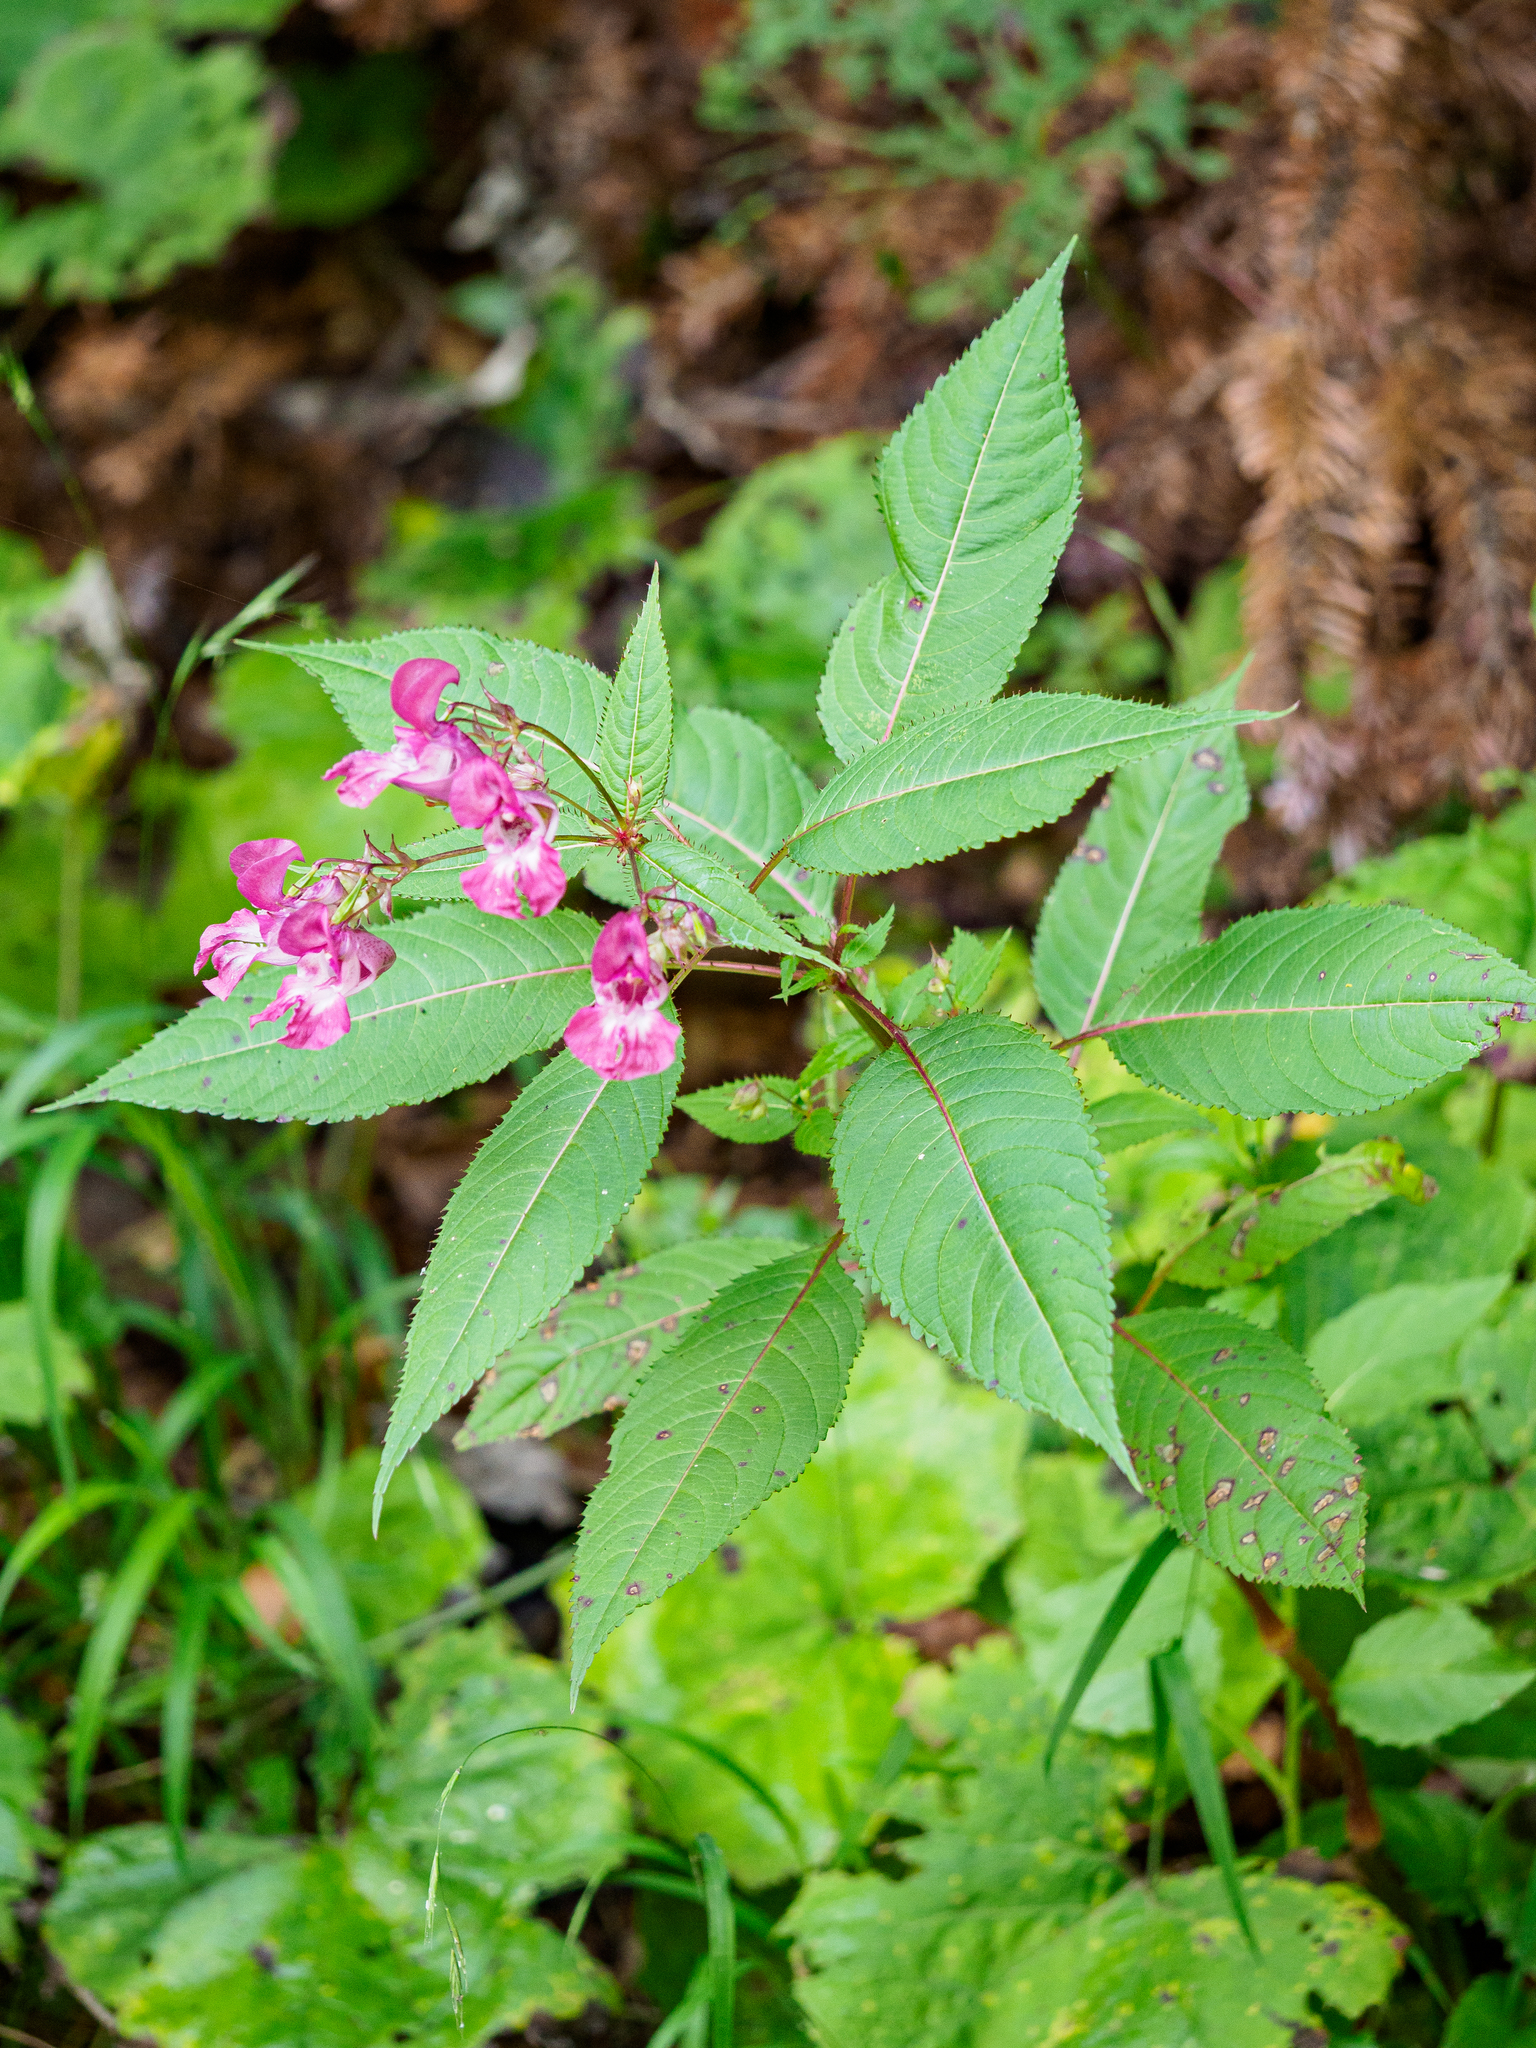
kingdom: Plantae
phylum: Tracheophyta
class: Magnoliopsida
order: Ericales
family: Balsaminaceae
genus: Impatiens
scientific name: Impatiens glandulifera
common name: Himalayan balsam
